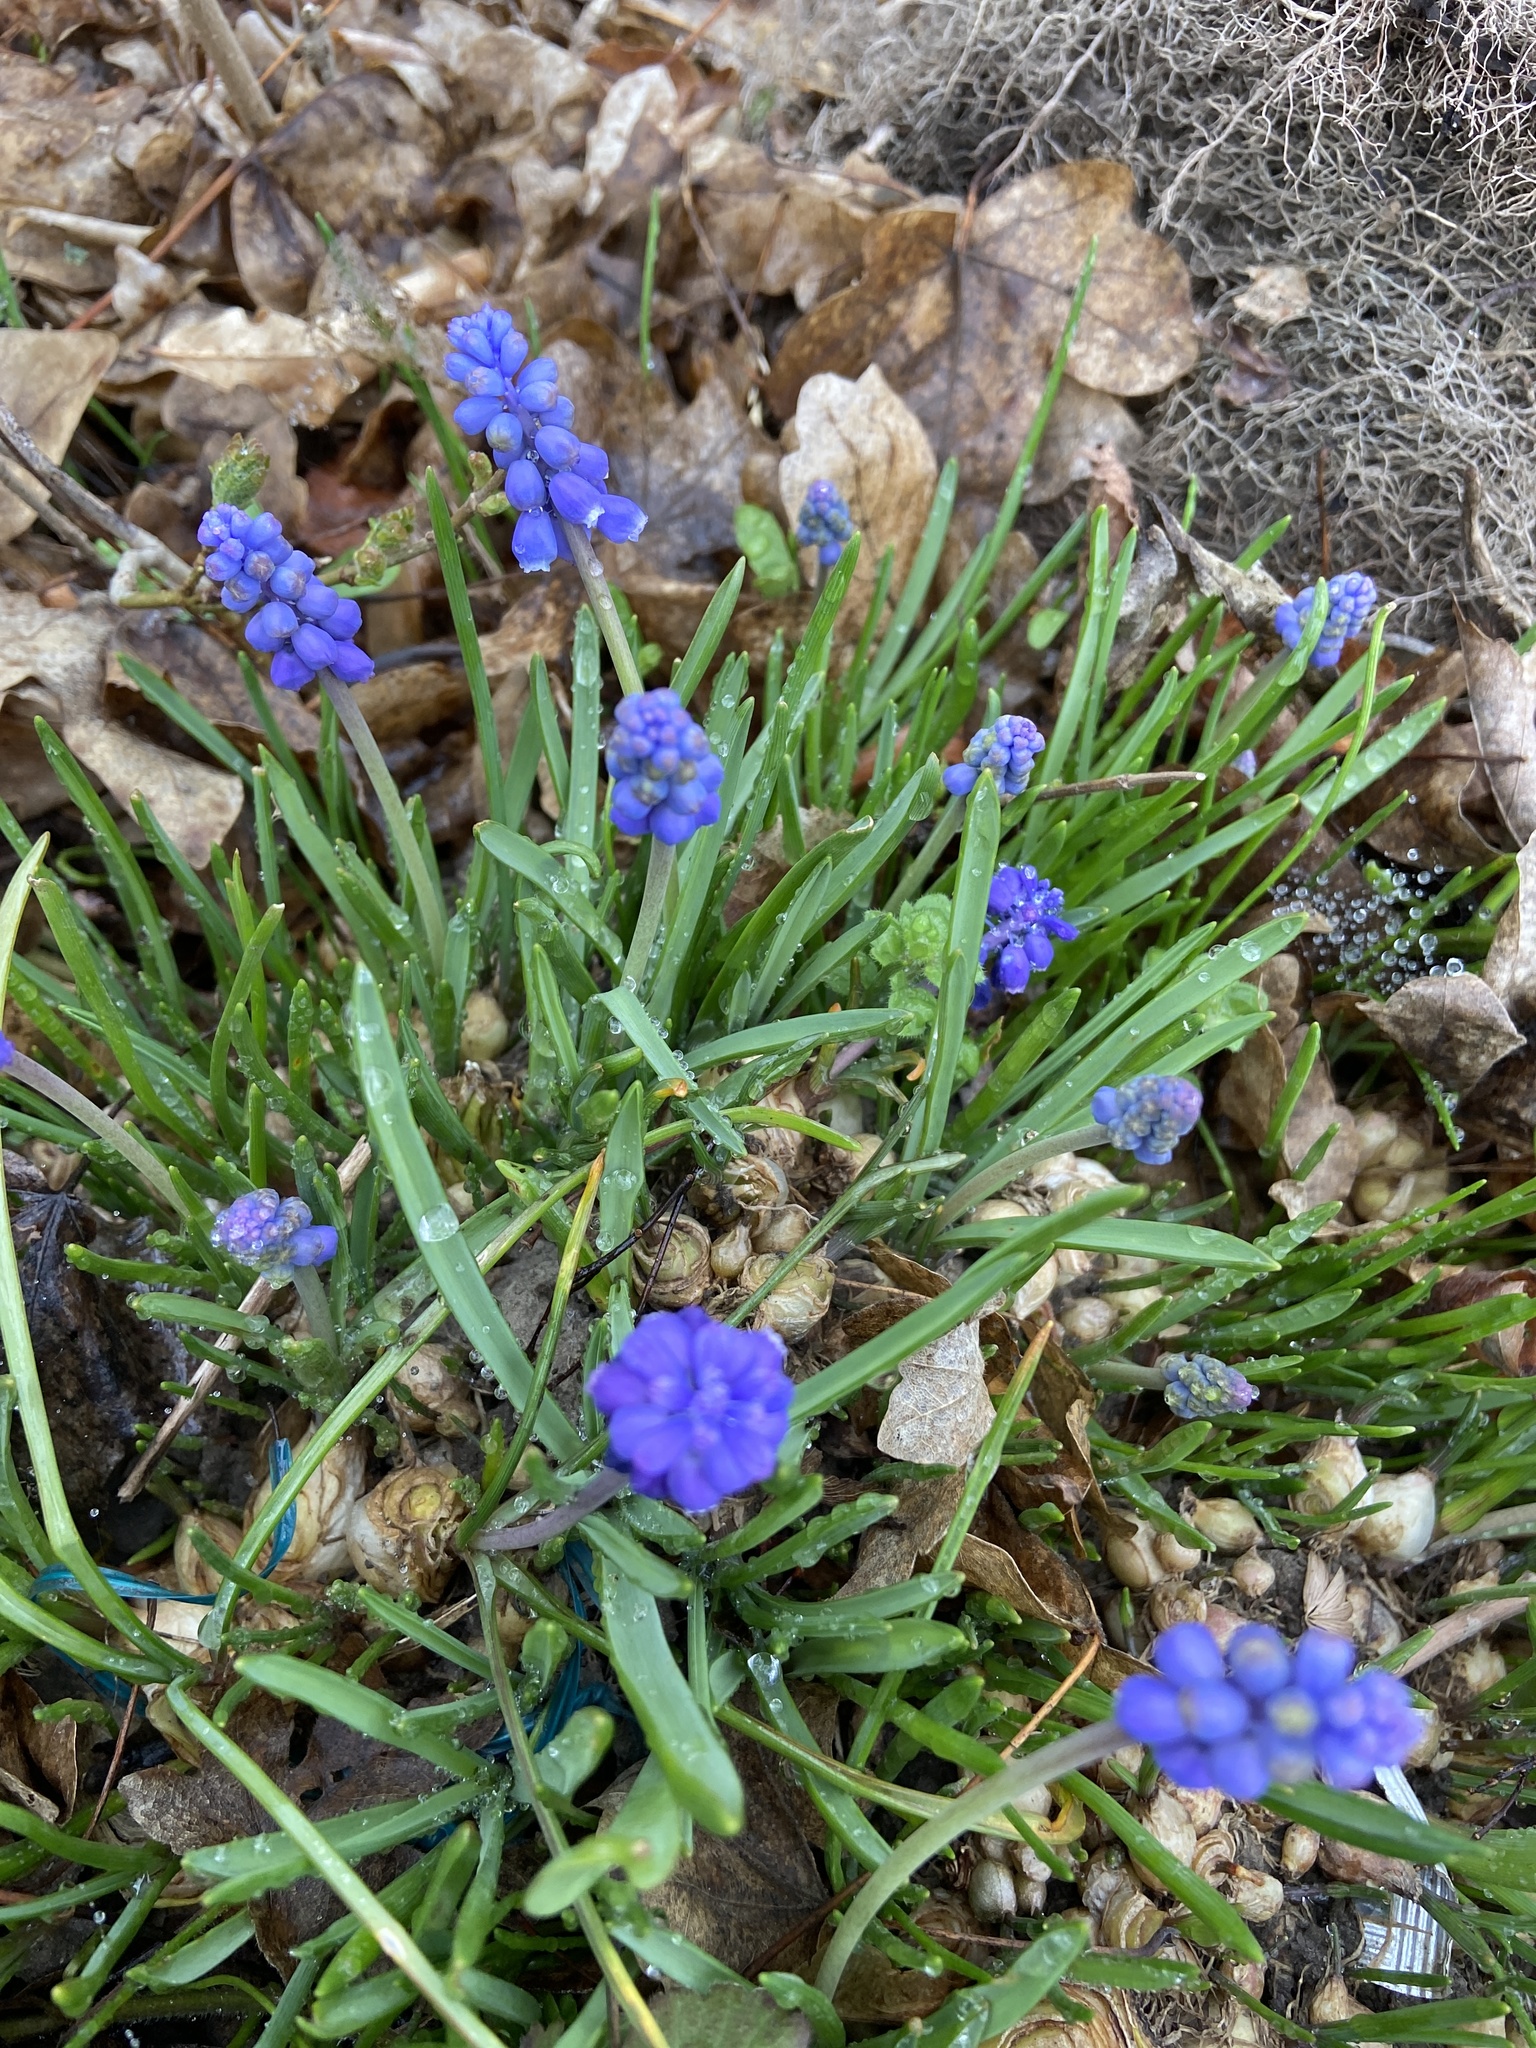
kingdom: Plantae
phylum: Tracheophyta
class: Liliopsida
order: Asparagales
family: Asparagaceae
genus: Muscari
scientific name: Muscari botryoides
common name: Compact grape-hyacinth
